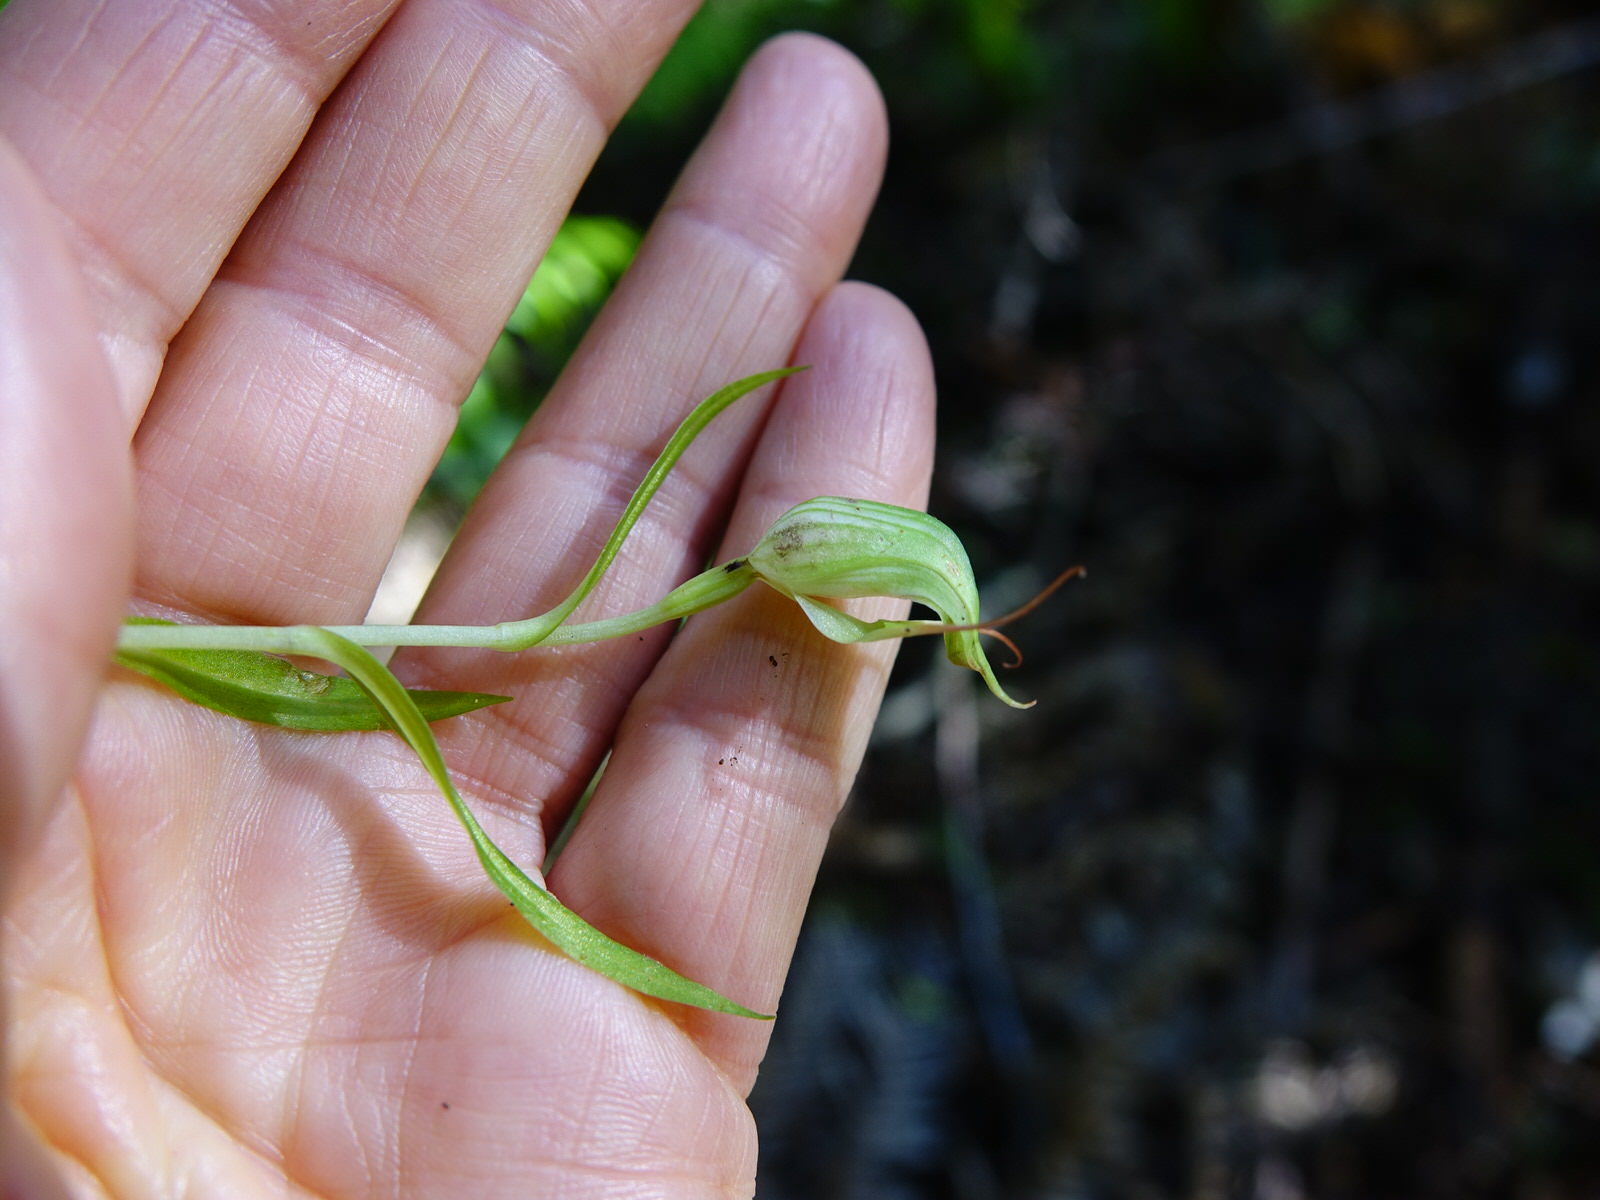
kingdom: Plantae
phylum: Tracheophyta
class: Liliopsida
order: Asparagales
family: Orchidaceae
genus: Pterostylis
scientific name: Pterostylis agathicola
